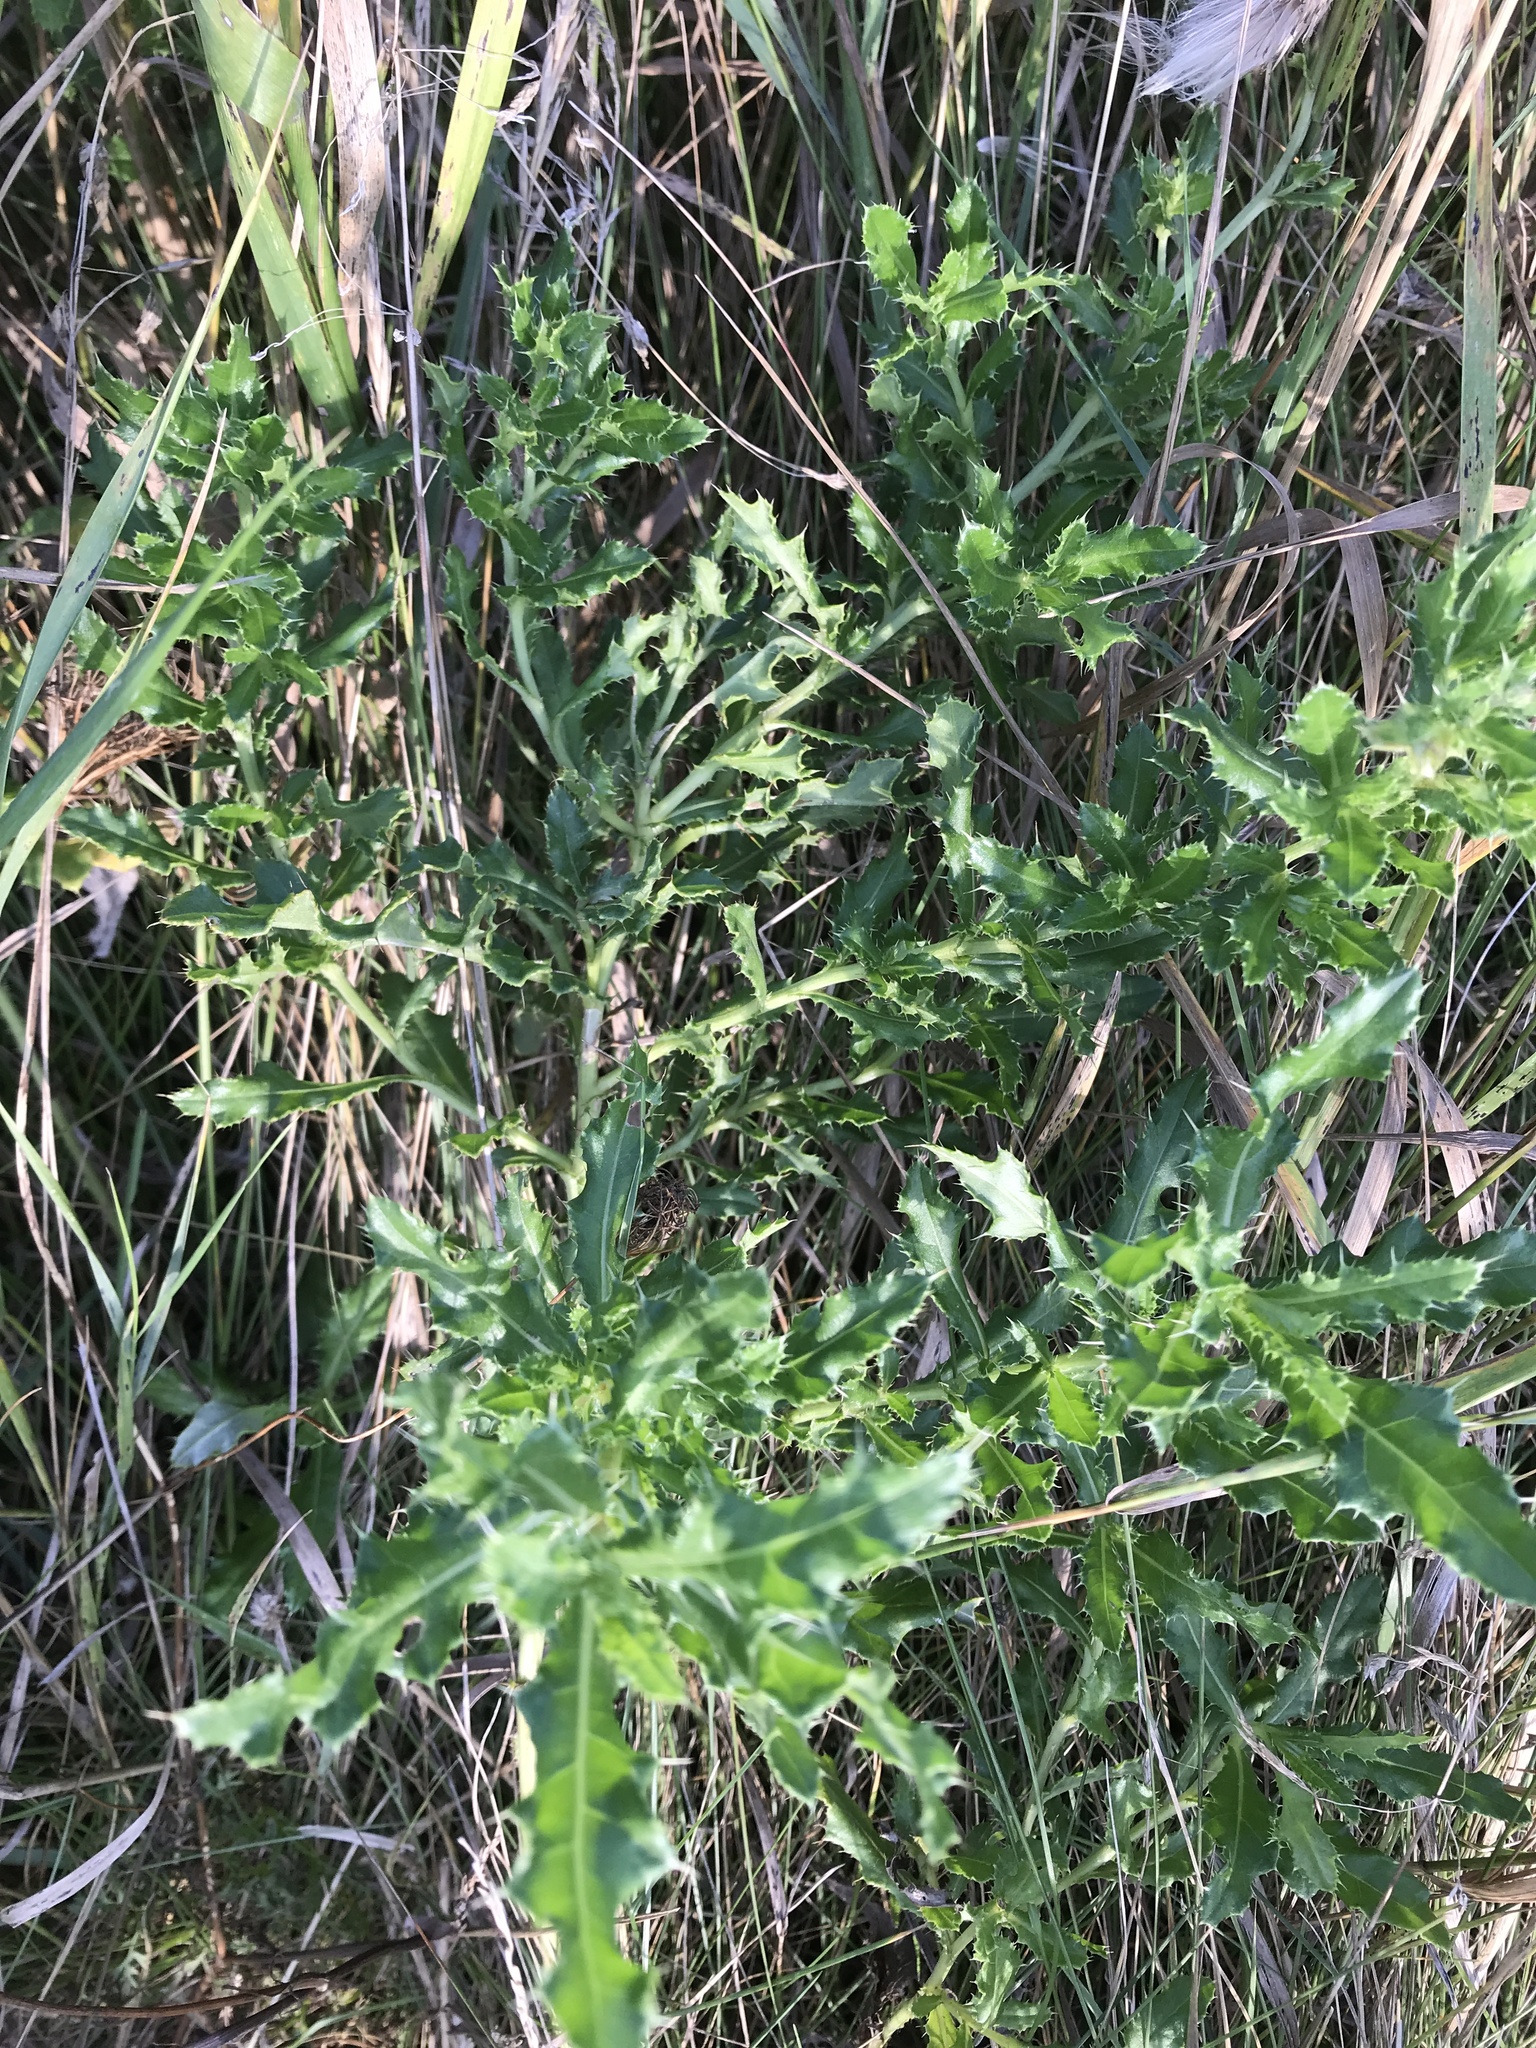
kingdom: Plantae
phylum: Tracheophyta
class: Magnoliopsida
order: Asterales
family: Asteraceae
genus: Cirsium
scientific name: Cirsium arvense
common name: Creeping thistle
